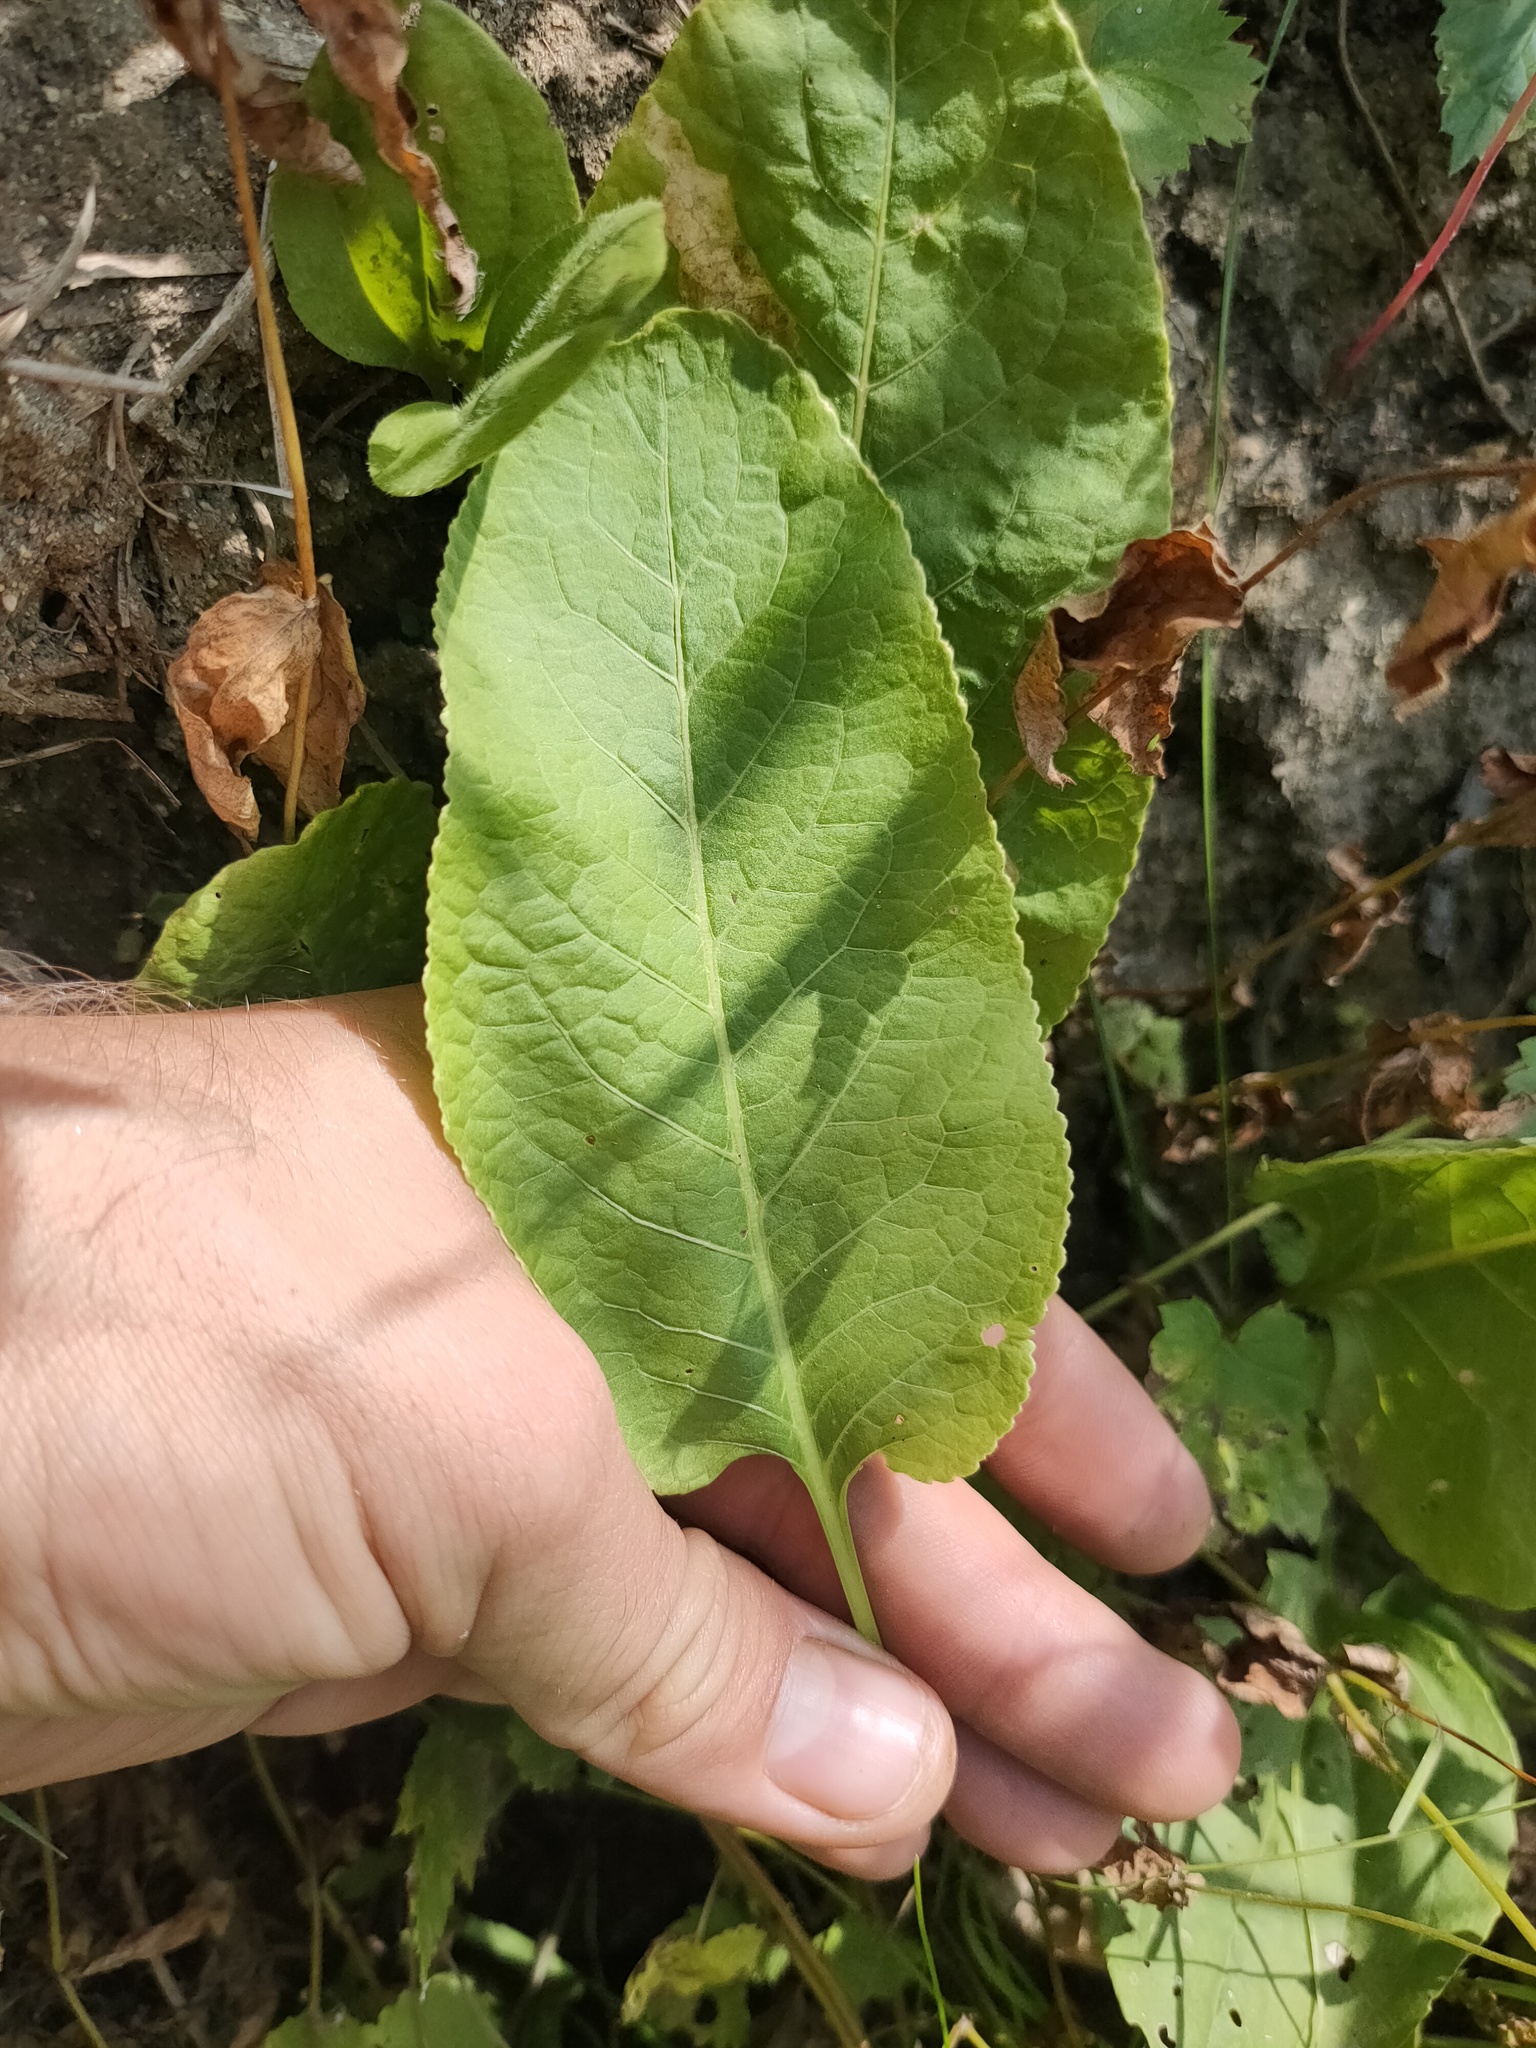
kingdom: Plantae
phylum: Tracheophyta
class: Magnoliopsida
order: Ericales
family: Primulaceae
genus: Primula
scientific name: Primula veris
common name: Cowslip
